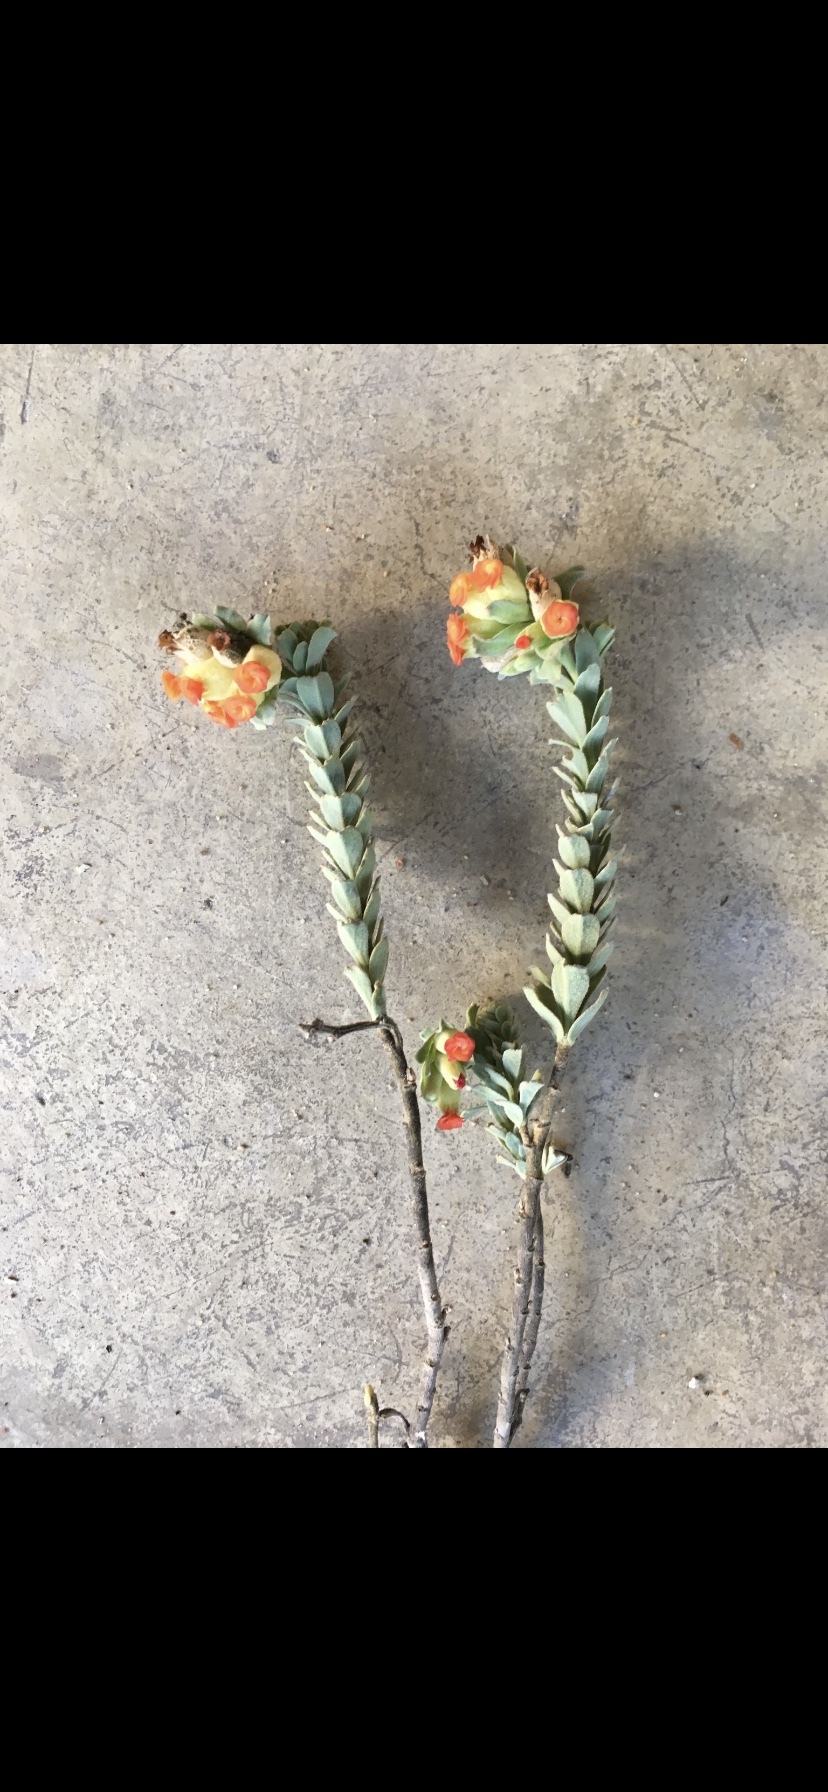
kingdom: Plantae
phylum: Tracheophyta
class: Magnoliopsida
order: Malvales
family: Malvaceae
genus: Hermannia
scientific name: Hermannia trifoliata
